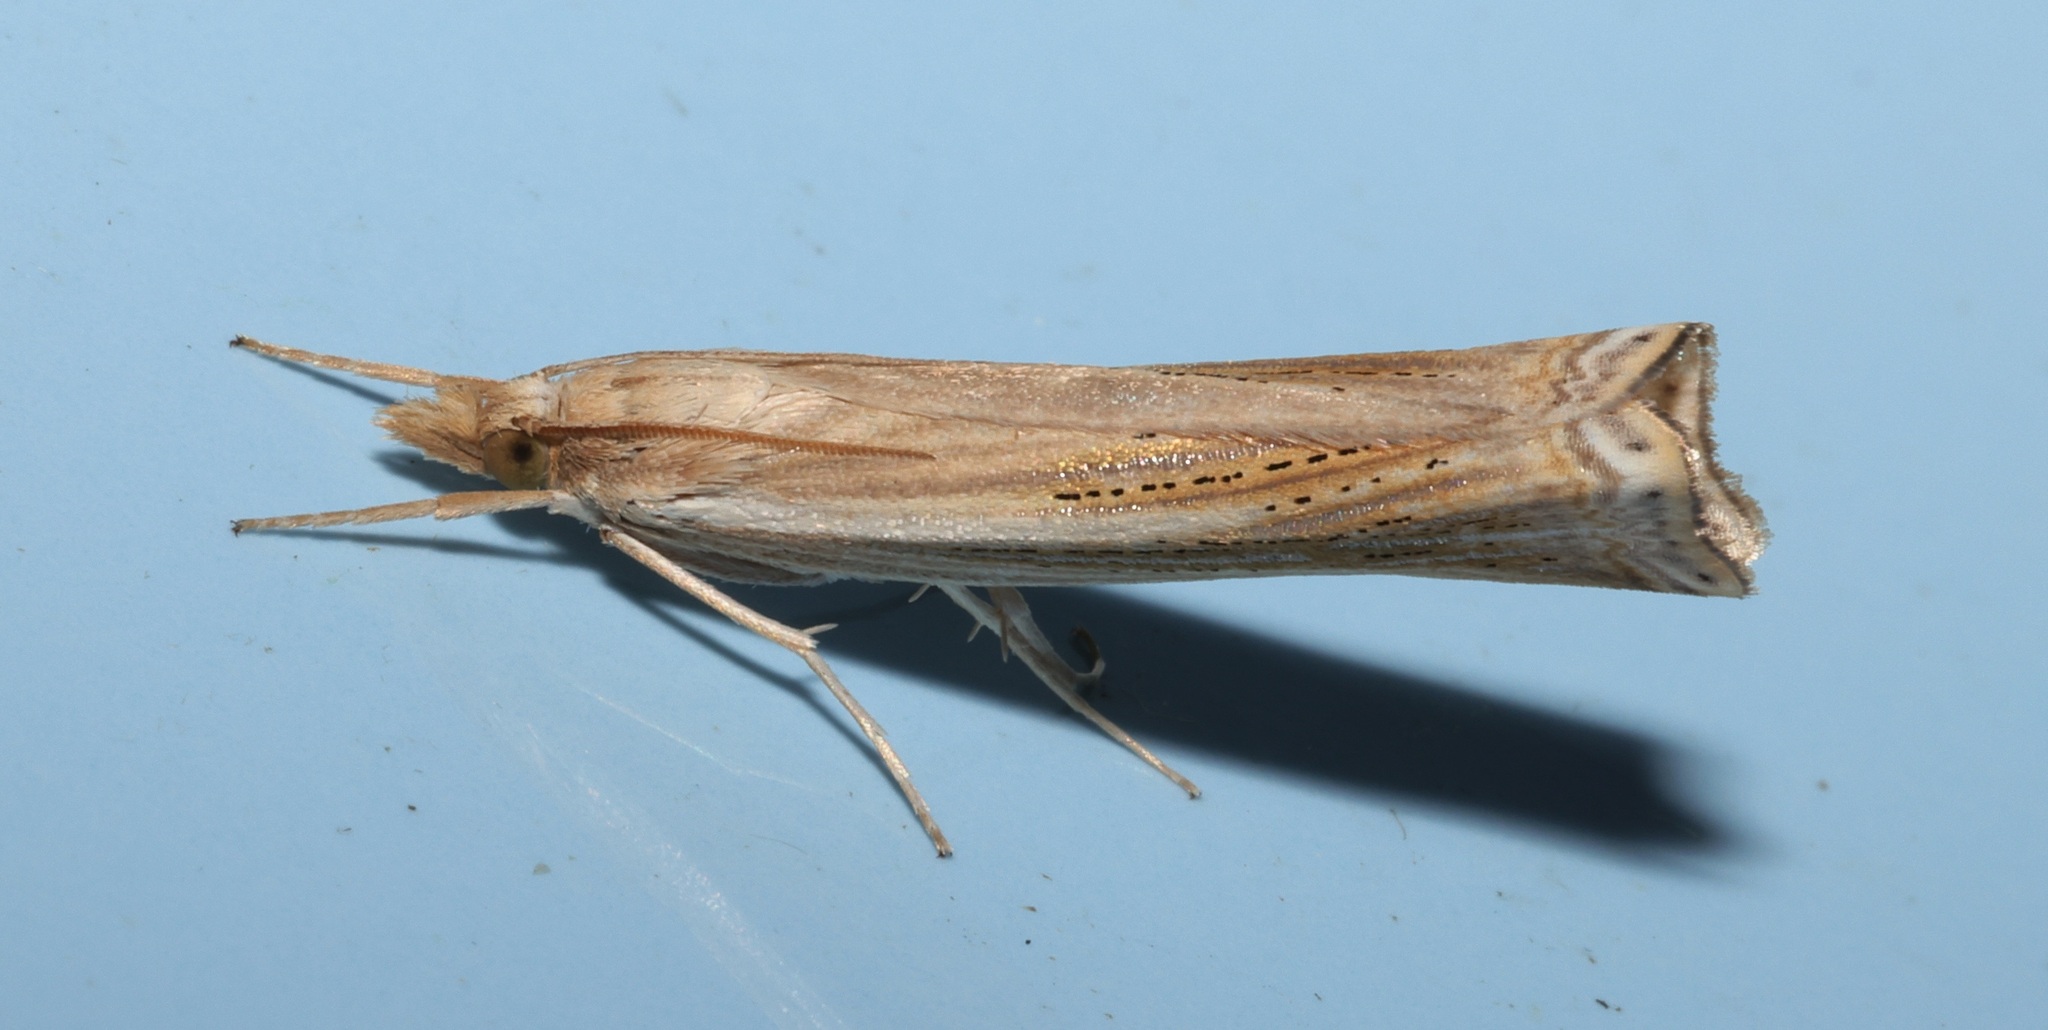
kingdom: Animalia
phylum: Arthropoda
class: Insecta
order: Lepidoptera
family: Crambidae
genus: Ancylolomia
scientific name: Ancylolomia japonica
